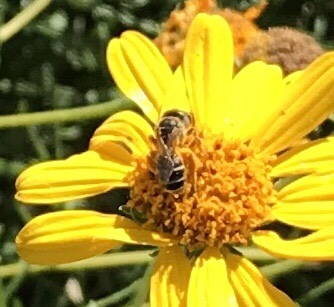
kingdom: Animalia
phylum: Arthropoda
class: Insecta
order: Hymenoptera
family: Halictidae
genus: Halictus
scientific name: Halictus ligatus
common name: Ligated furrow bee
